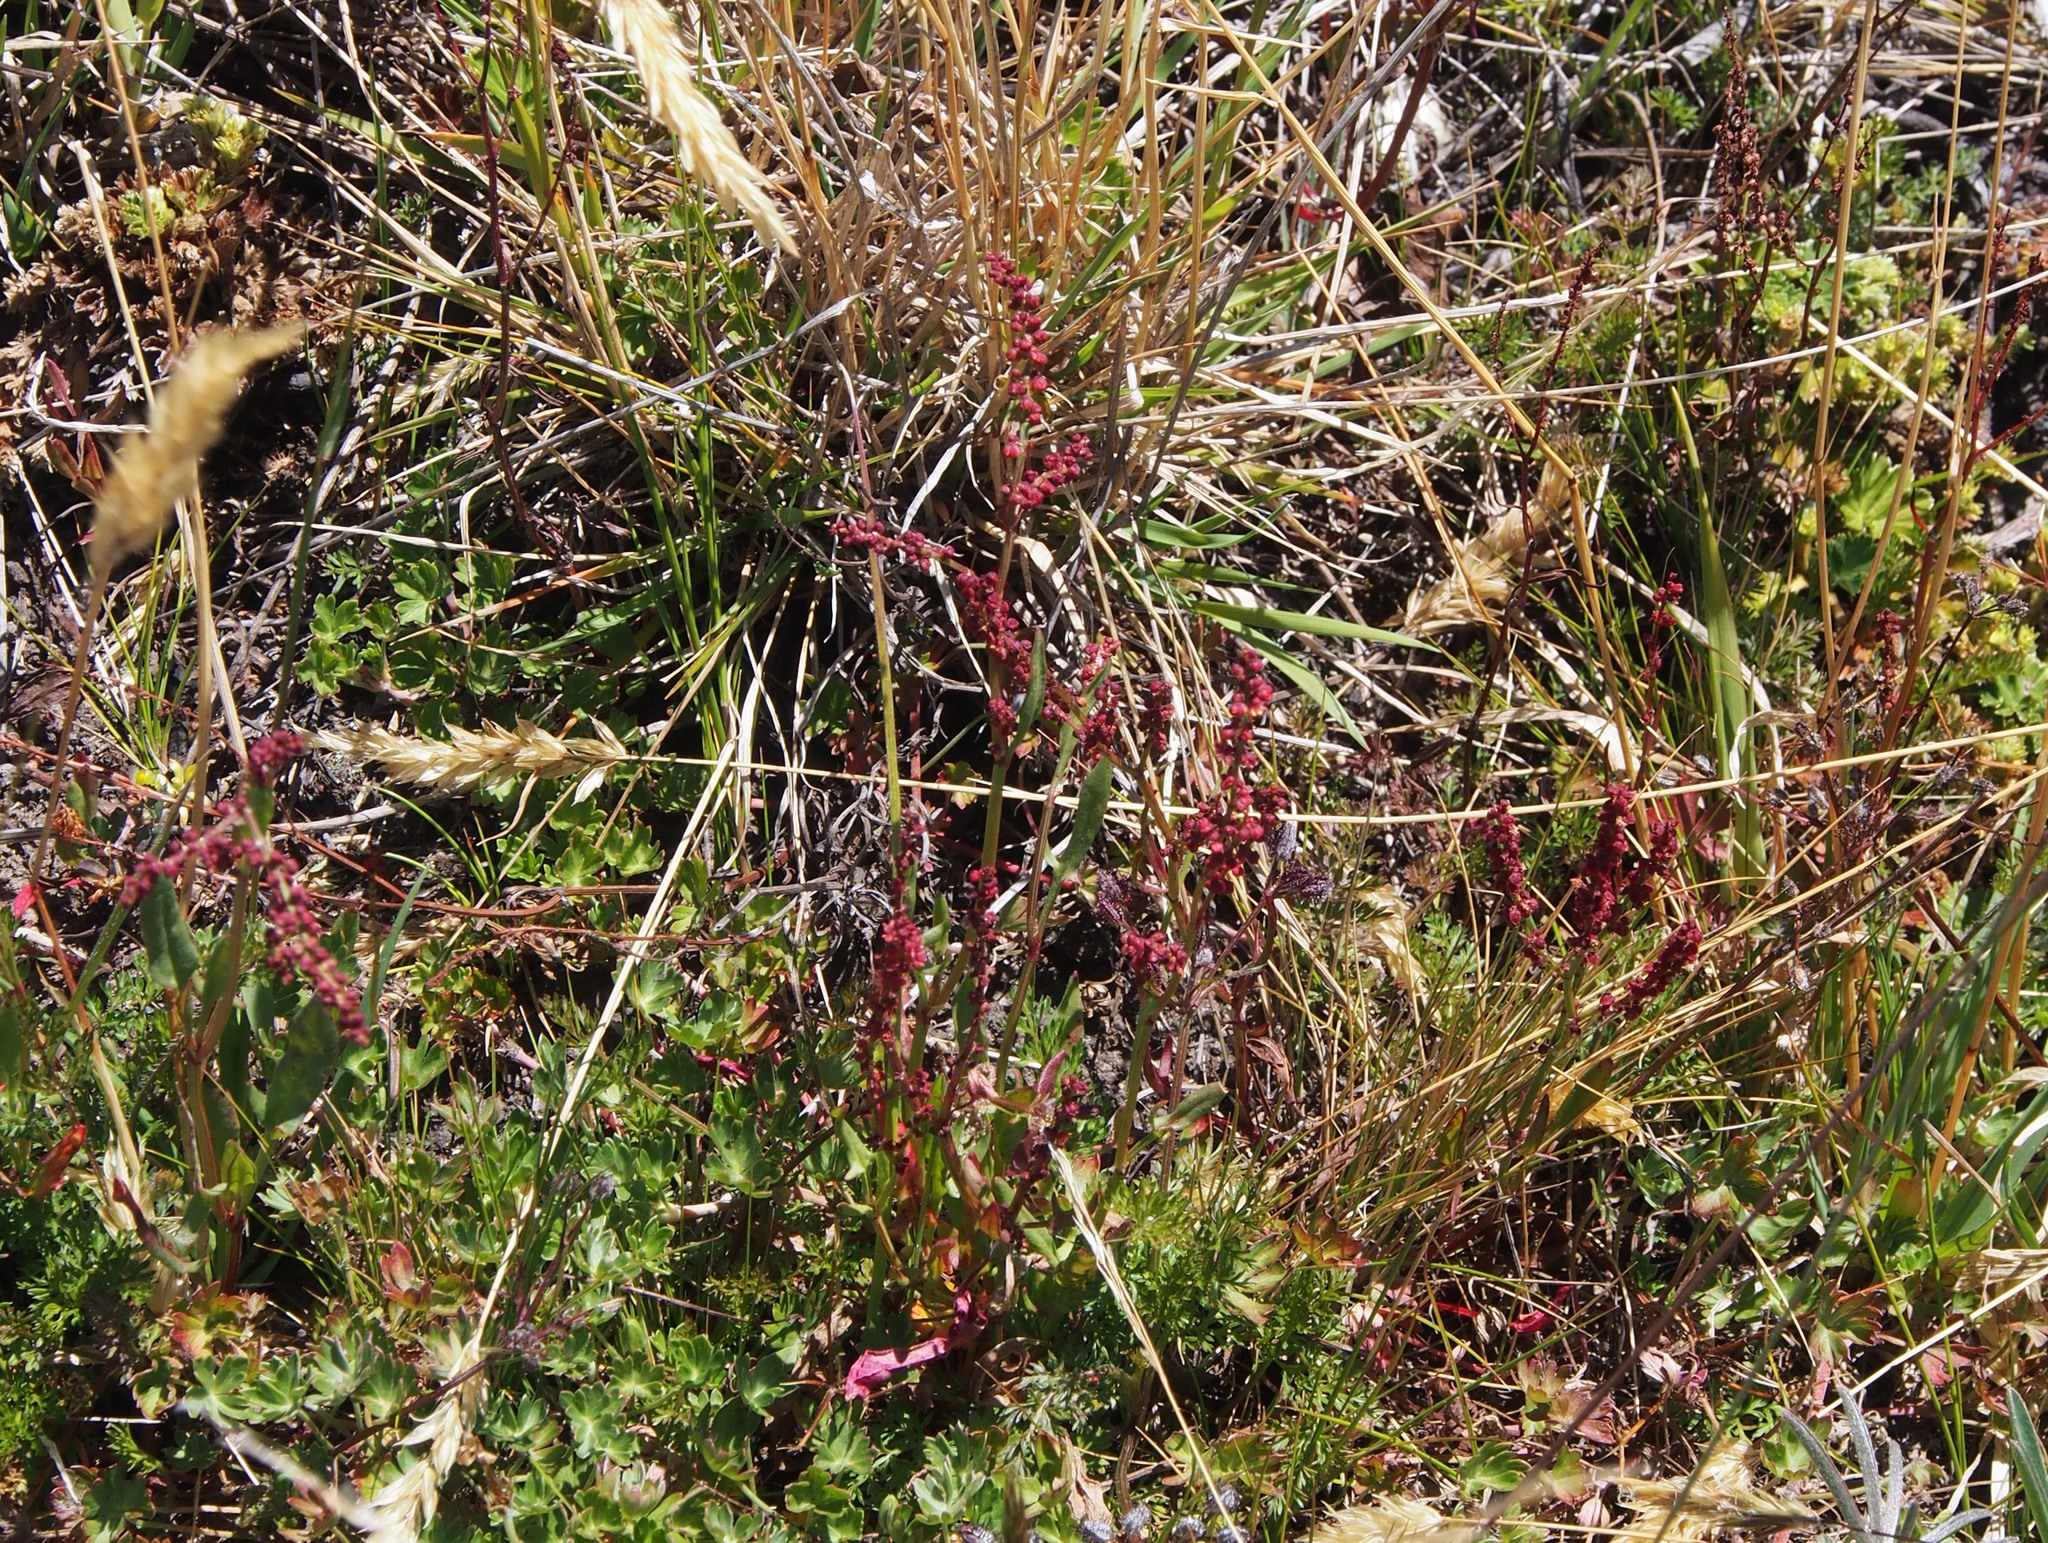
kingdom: Plantae
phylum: Tracheophyta
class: Magnoliopsida
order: Caryophyllales
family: Polygonaceae
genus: Rumex
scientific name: Rumex acetosella
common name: Common sheep sorrel
